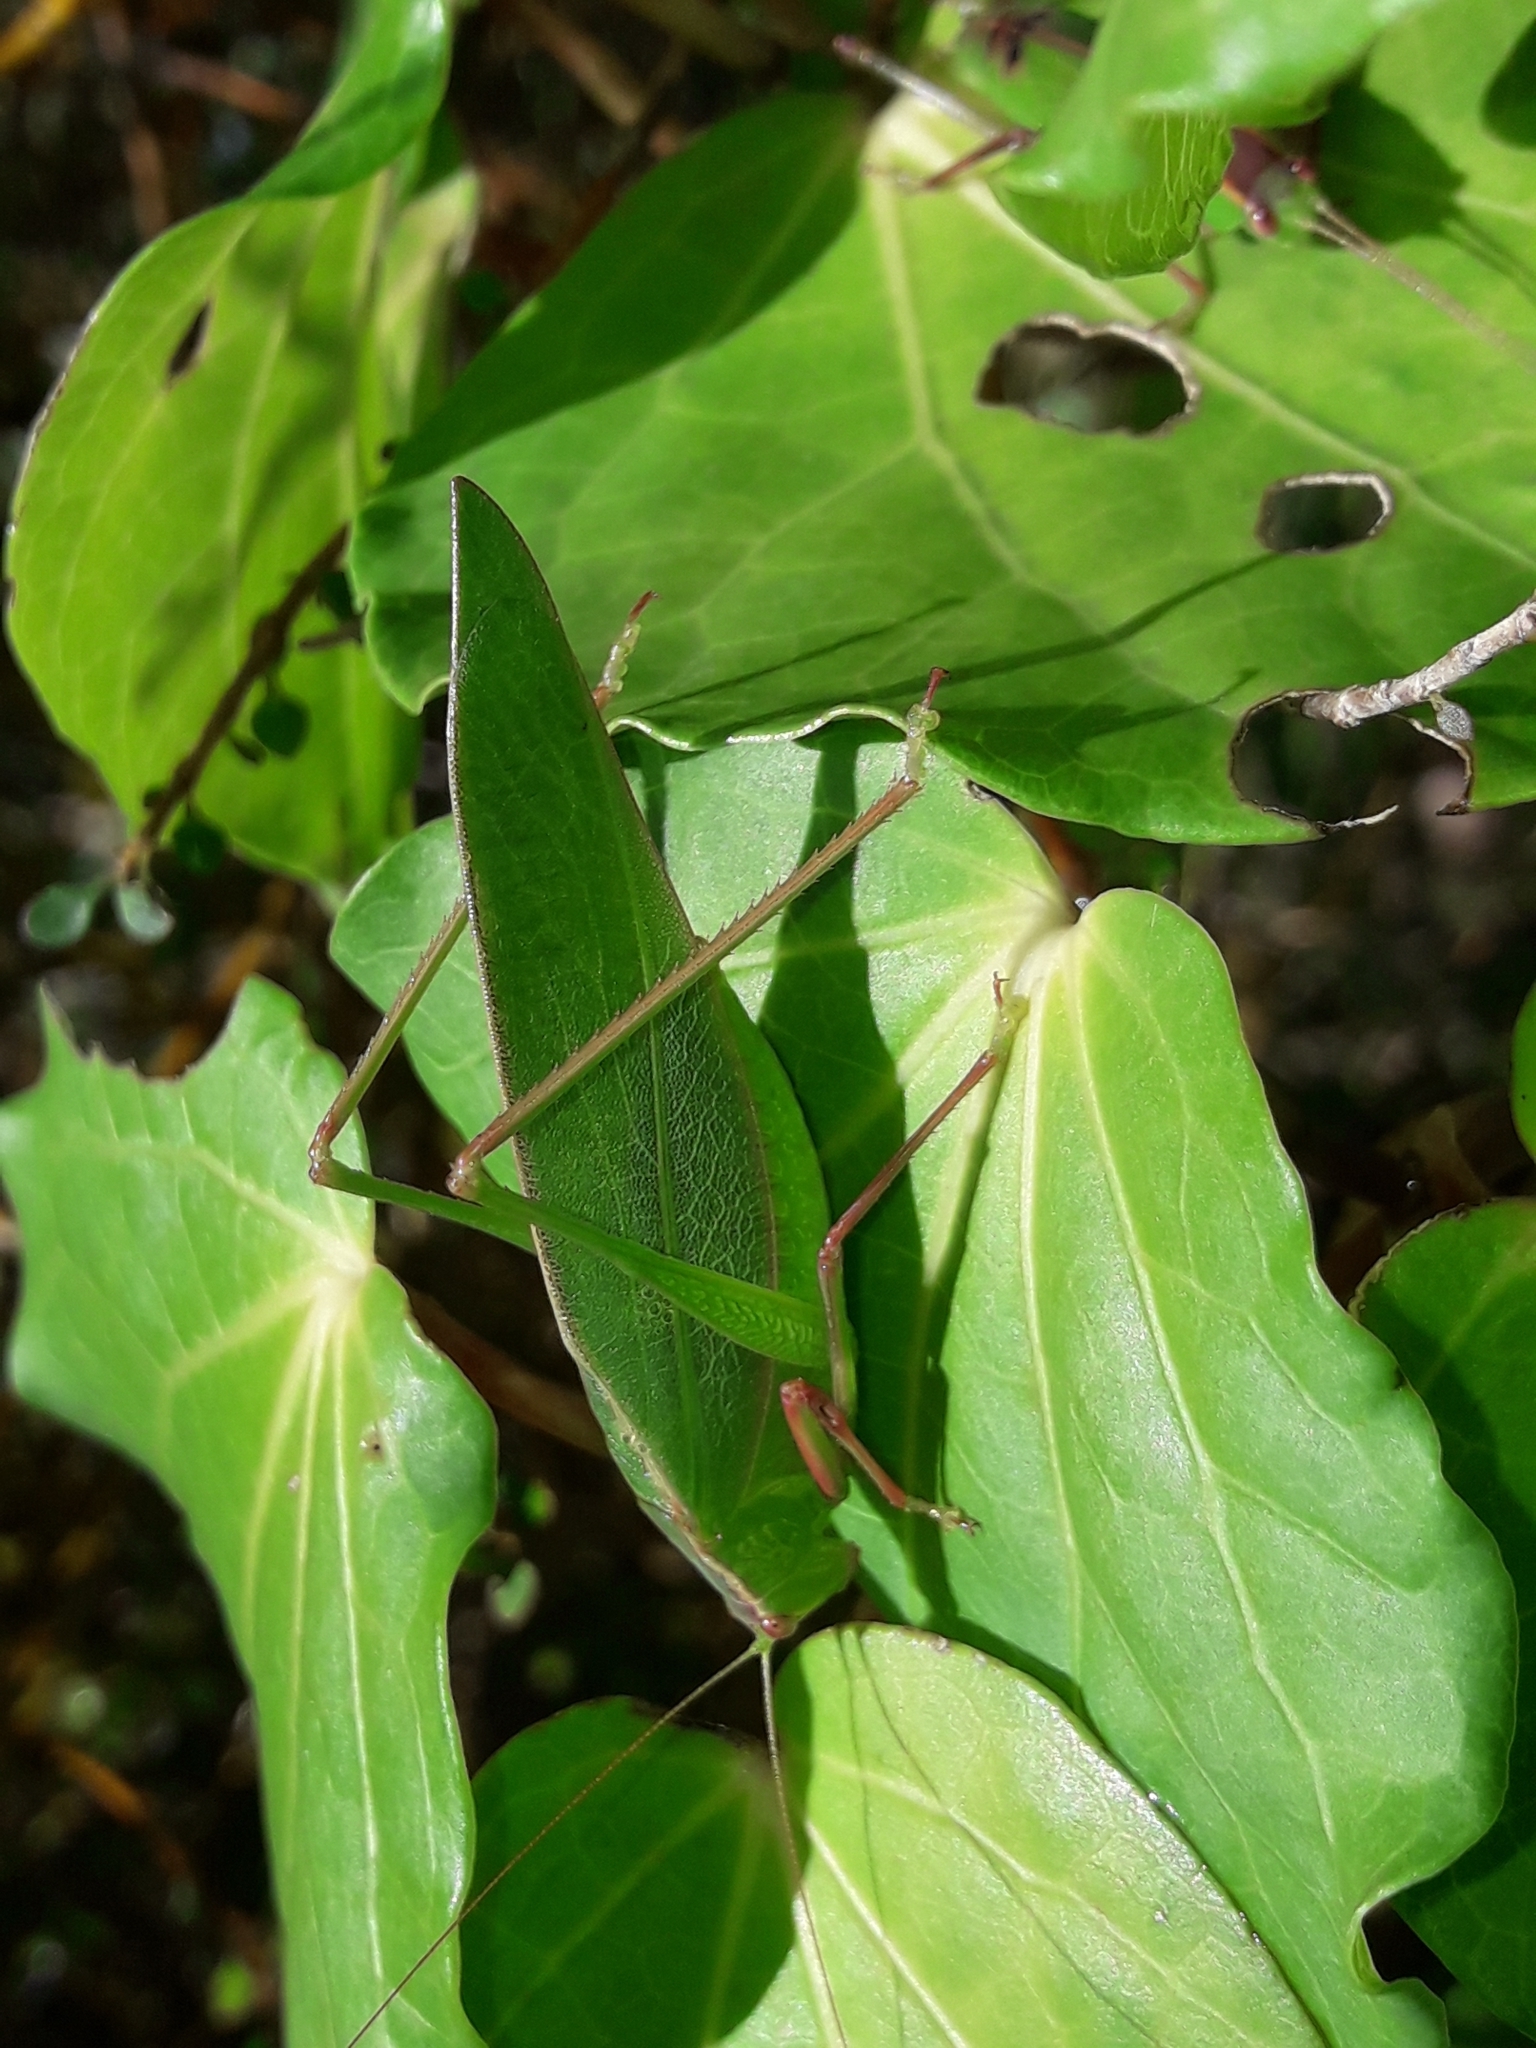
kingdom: Animalia
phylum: Arthropoda
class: Insecta
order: Orthoptera
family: Tettigoniidae
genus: Caedicia
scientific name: Caedicia simplex
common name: Common garden katydid
